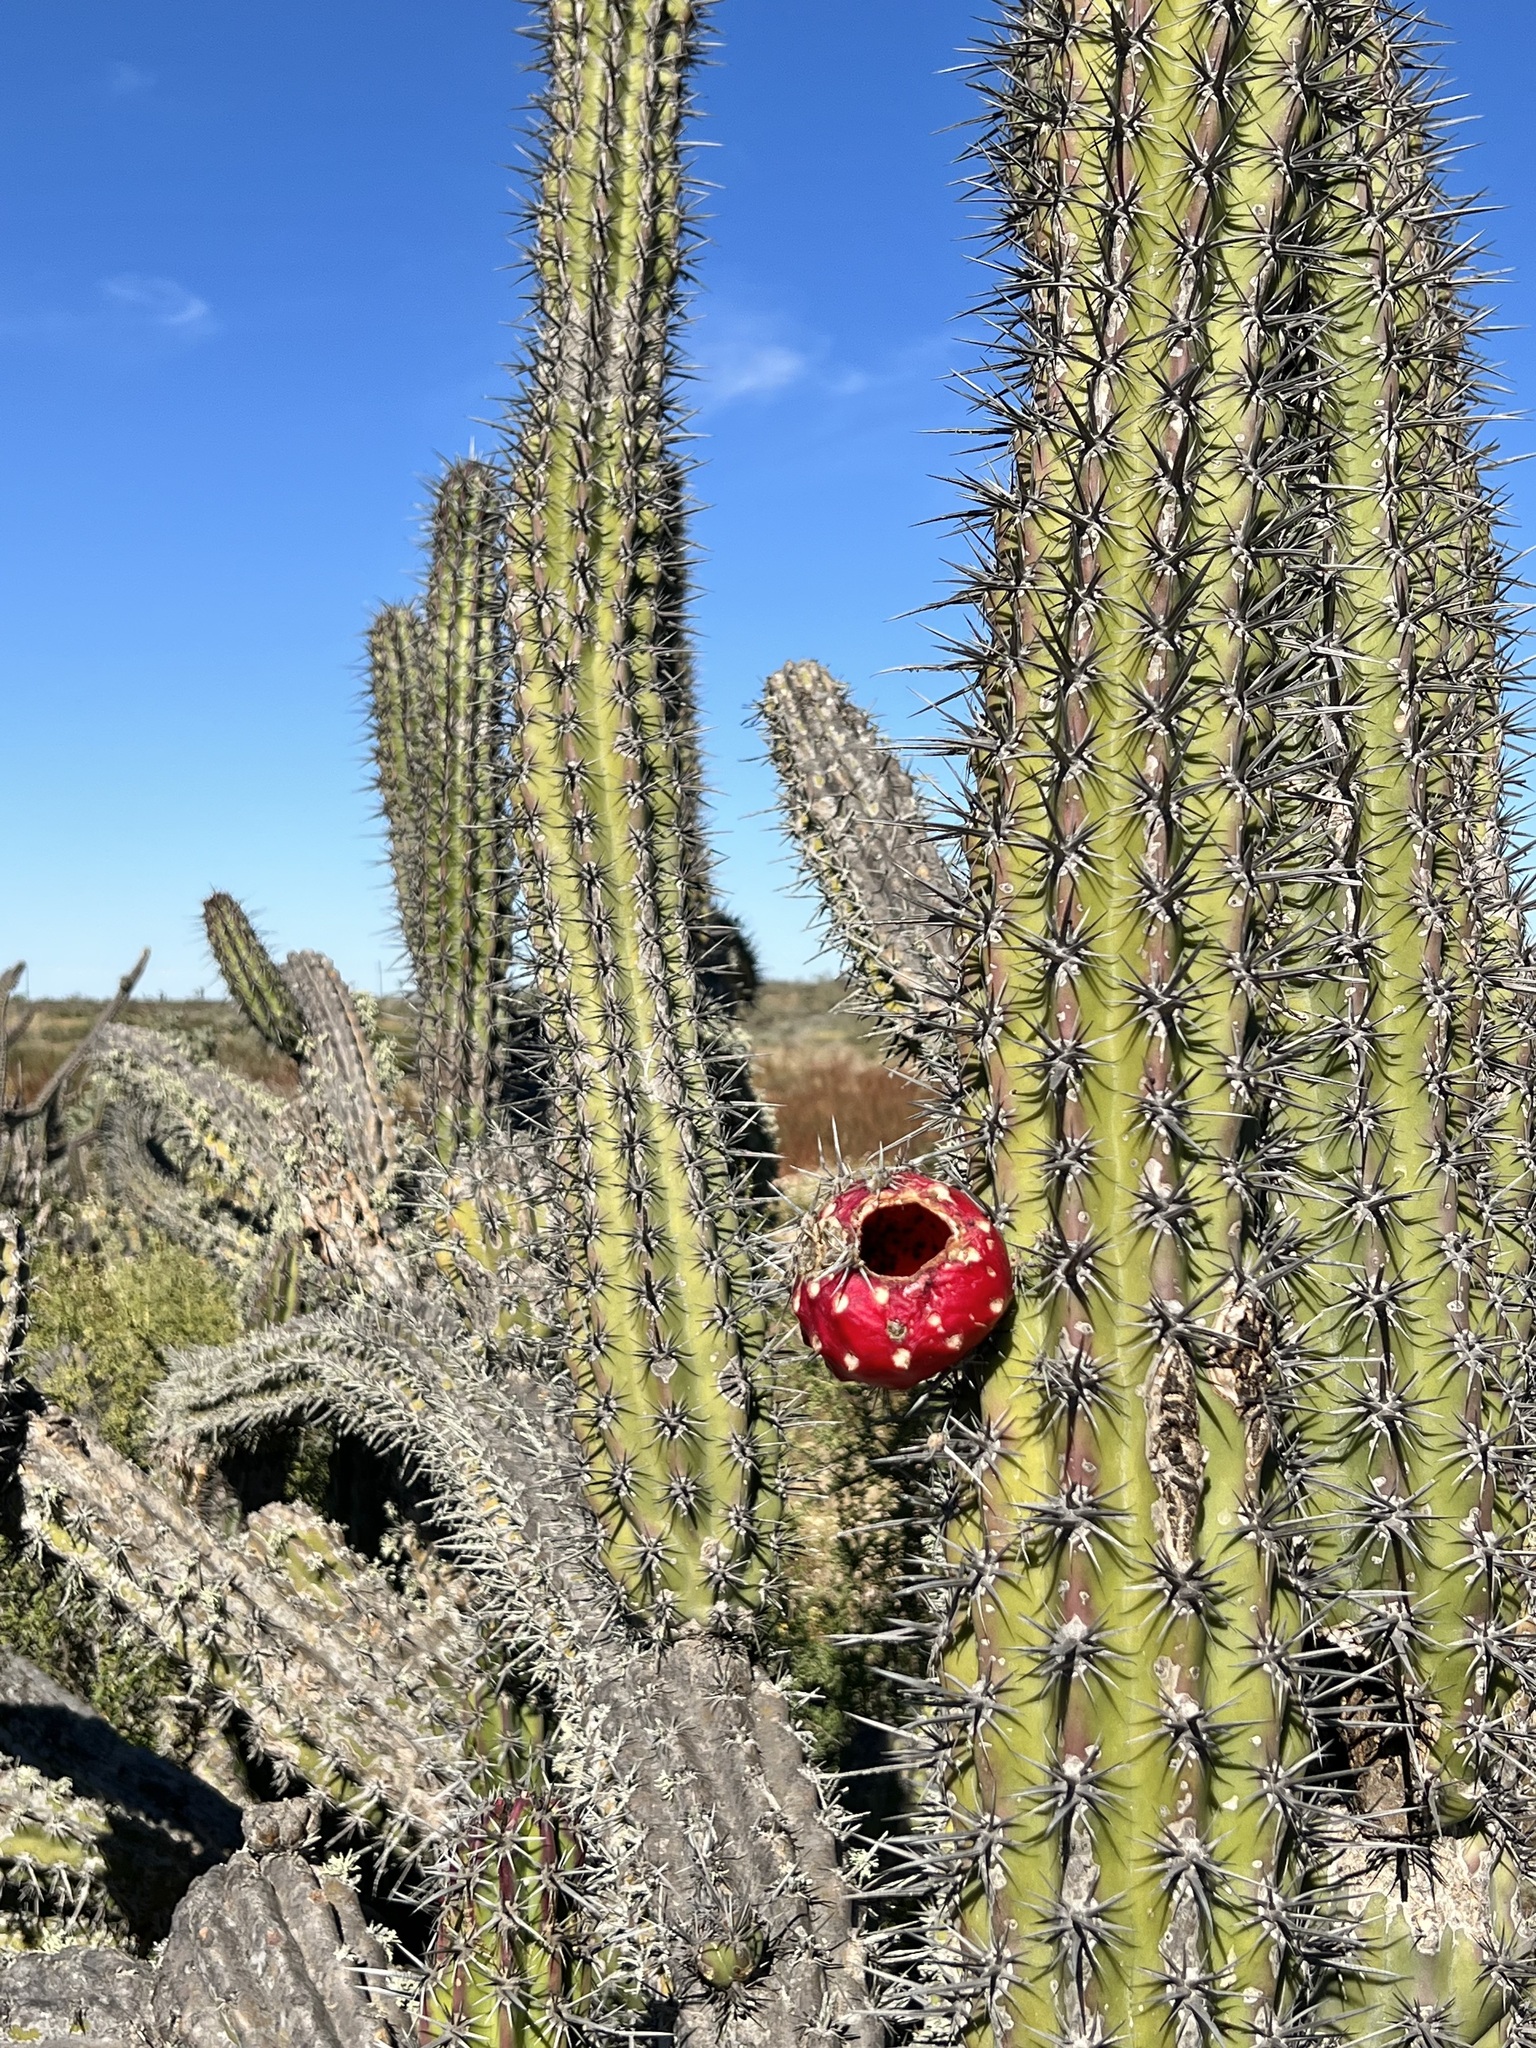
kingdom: Plantae
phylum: Tracheophyta
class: Magnoliopsida
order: Caryophyllales
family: Cactaceae
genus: Stenocereus
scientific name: Stenocereus gummosus
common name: Dagger cactus
